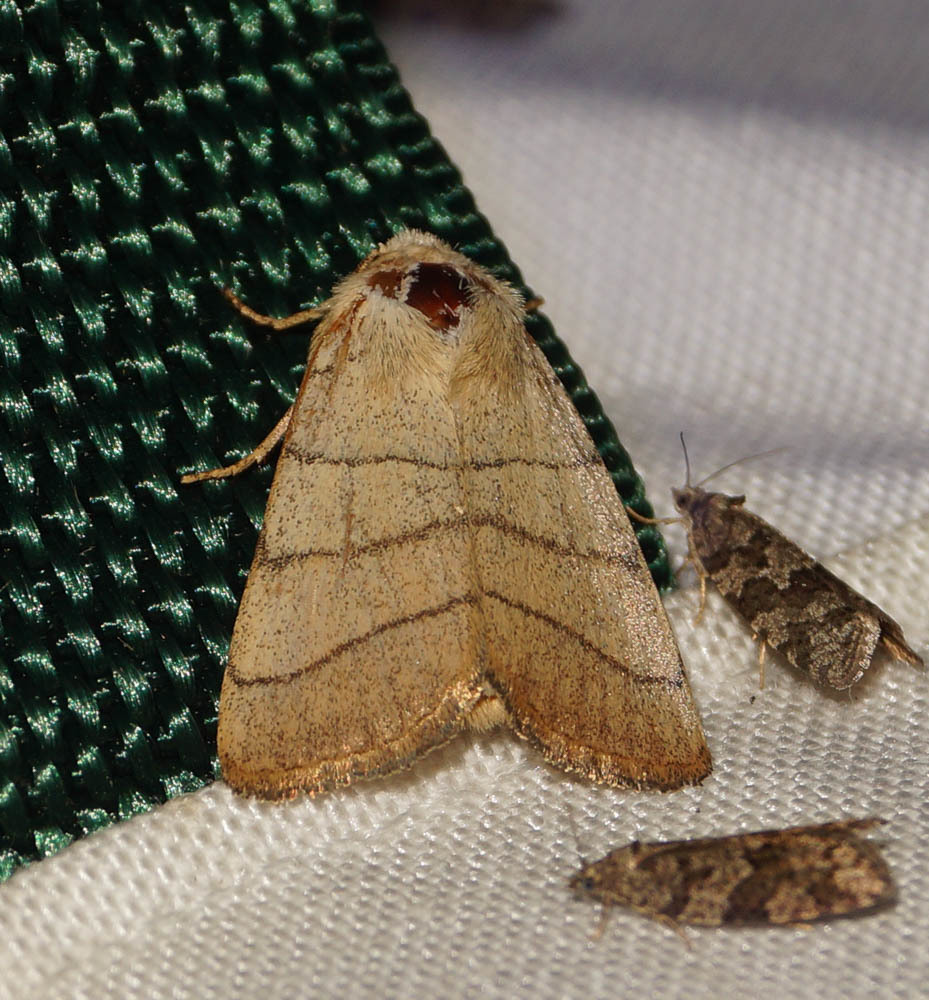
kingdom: Animalia
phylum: Arthropoda
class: Insecta
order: Lepidoptera
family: Noctuidae
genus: Charanyca
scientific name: Charanyca trigrammica
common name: Treble lines
